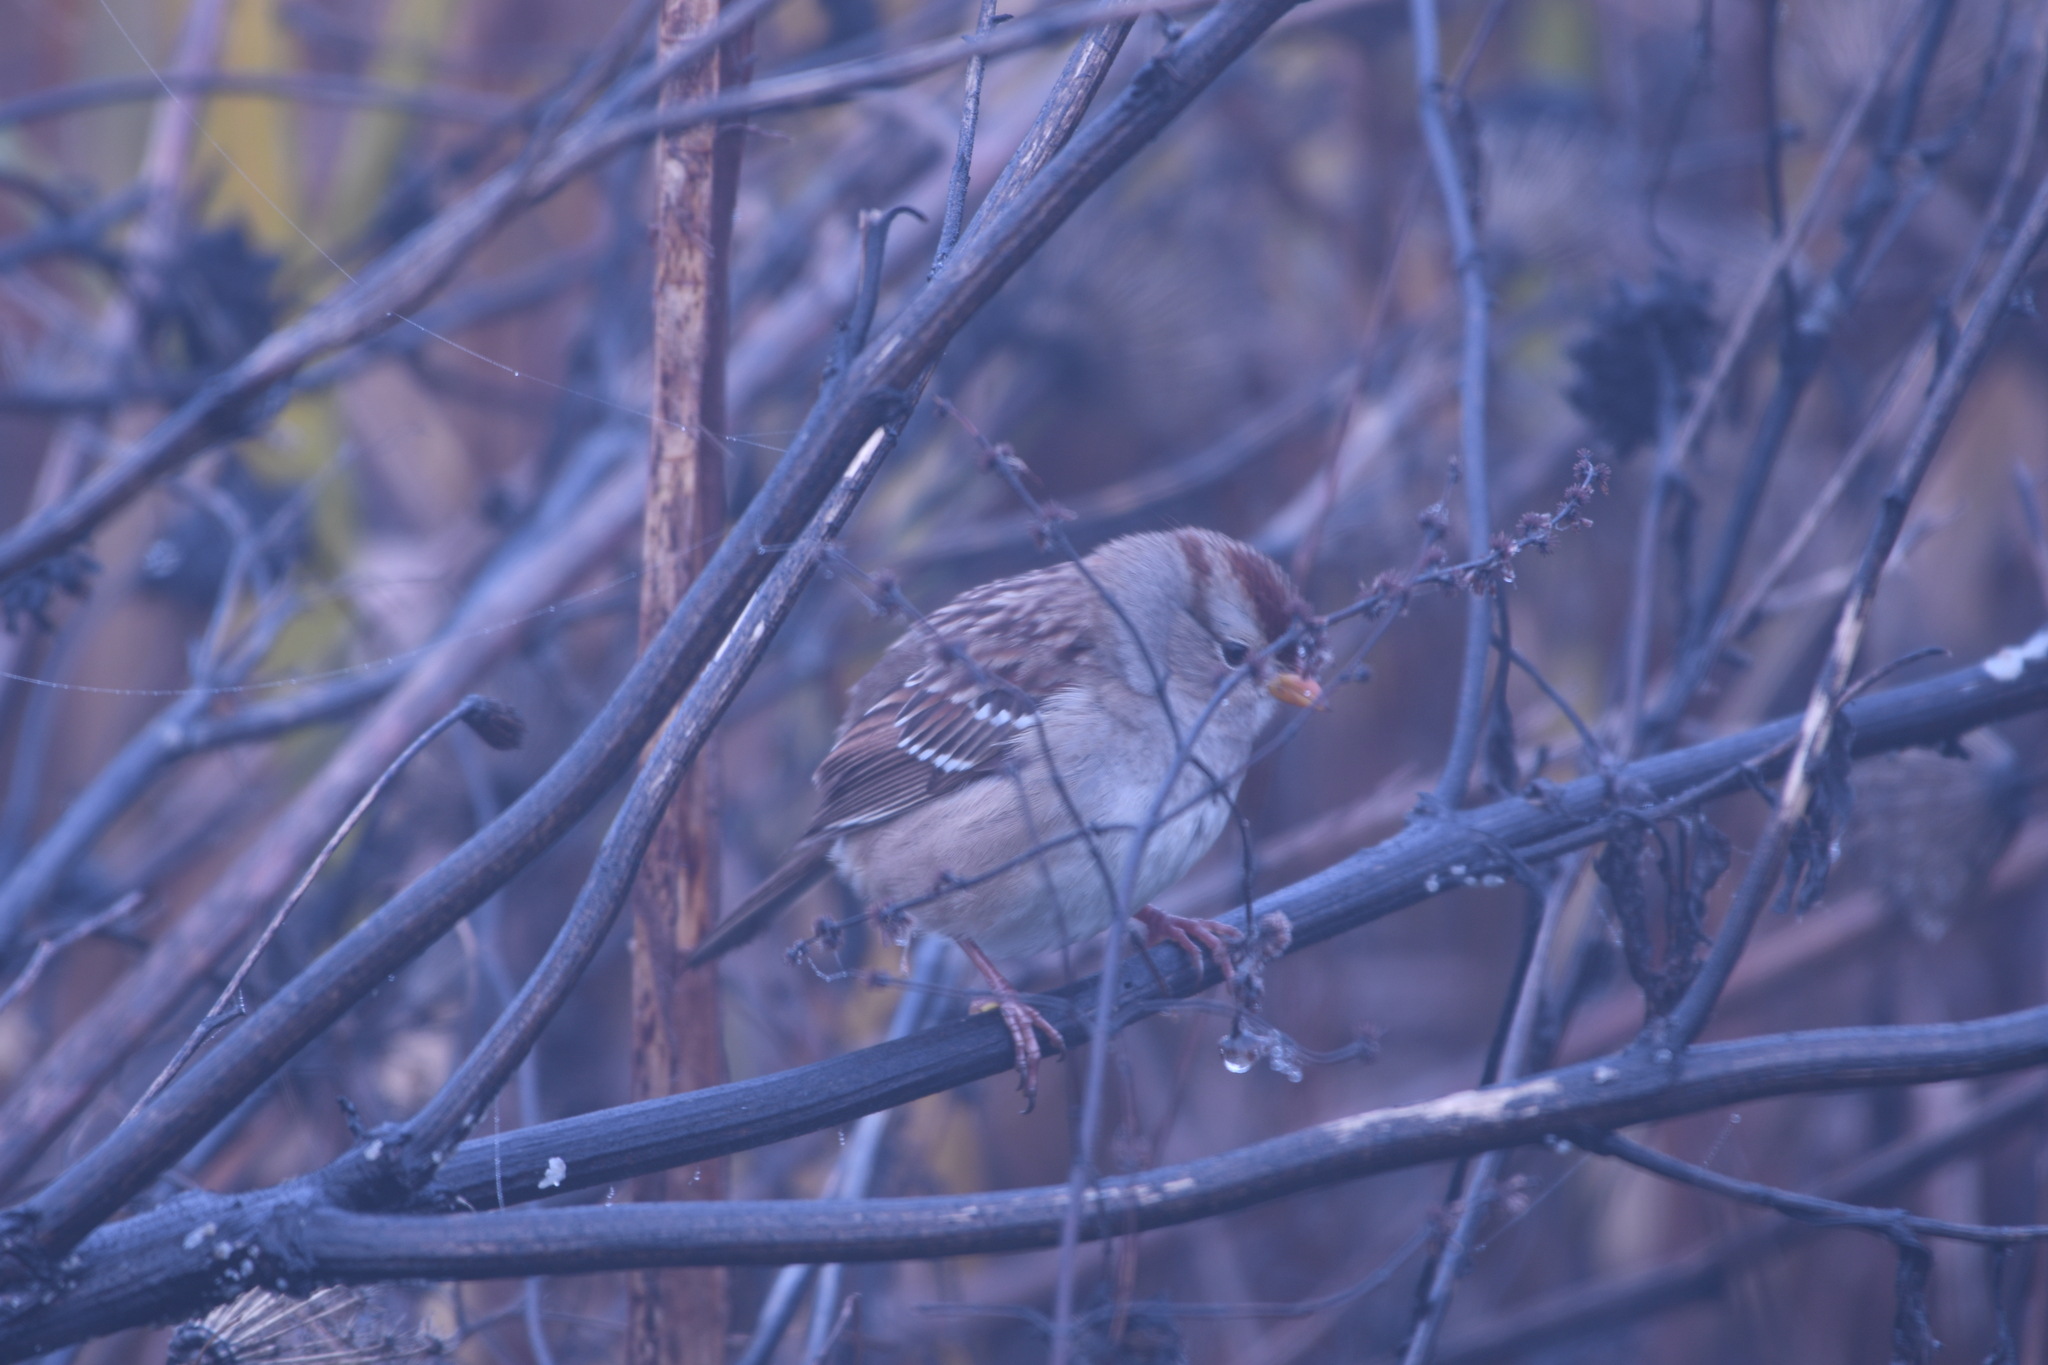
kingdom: Animalia
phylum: Chordata
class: Aves
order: Passeriformes
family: Passerellidae
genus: Zonotrichia
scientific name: Zonotrichia leucophrys
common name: White-crowned sparrow
